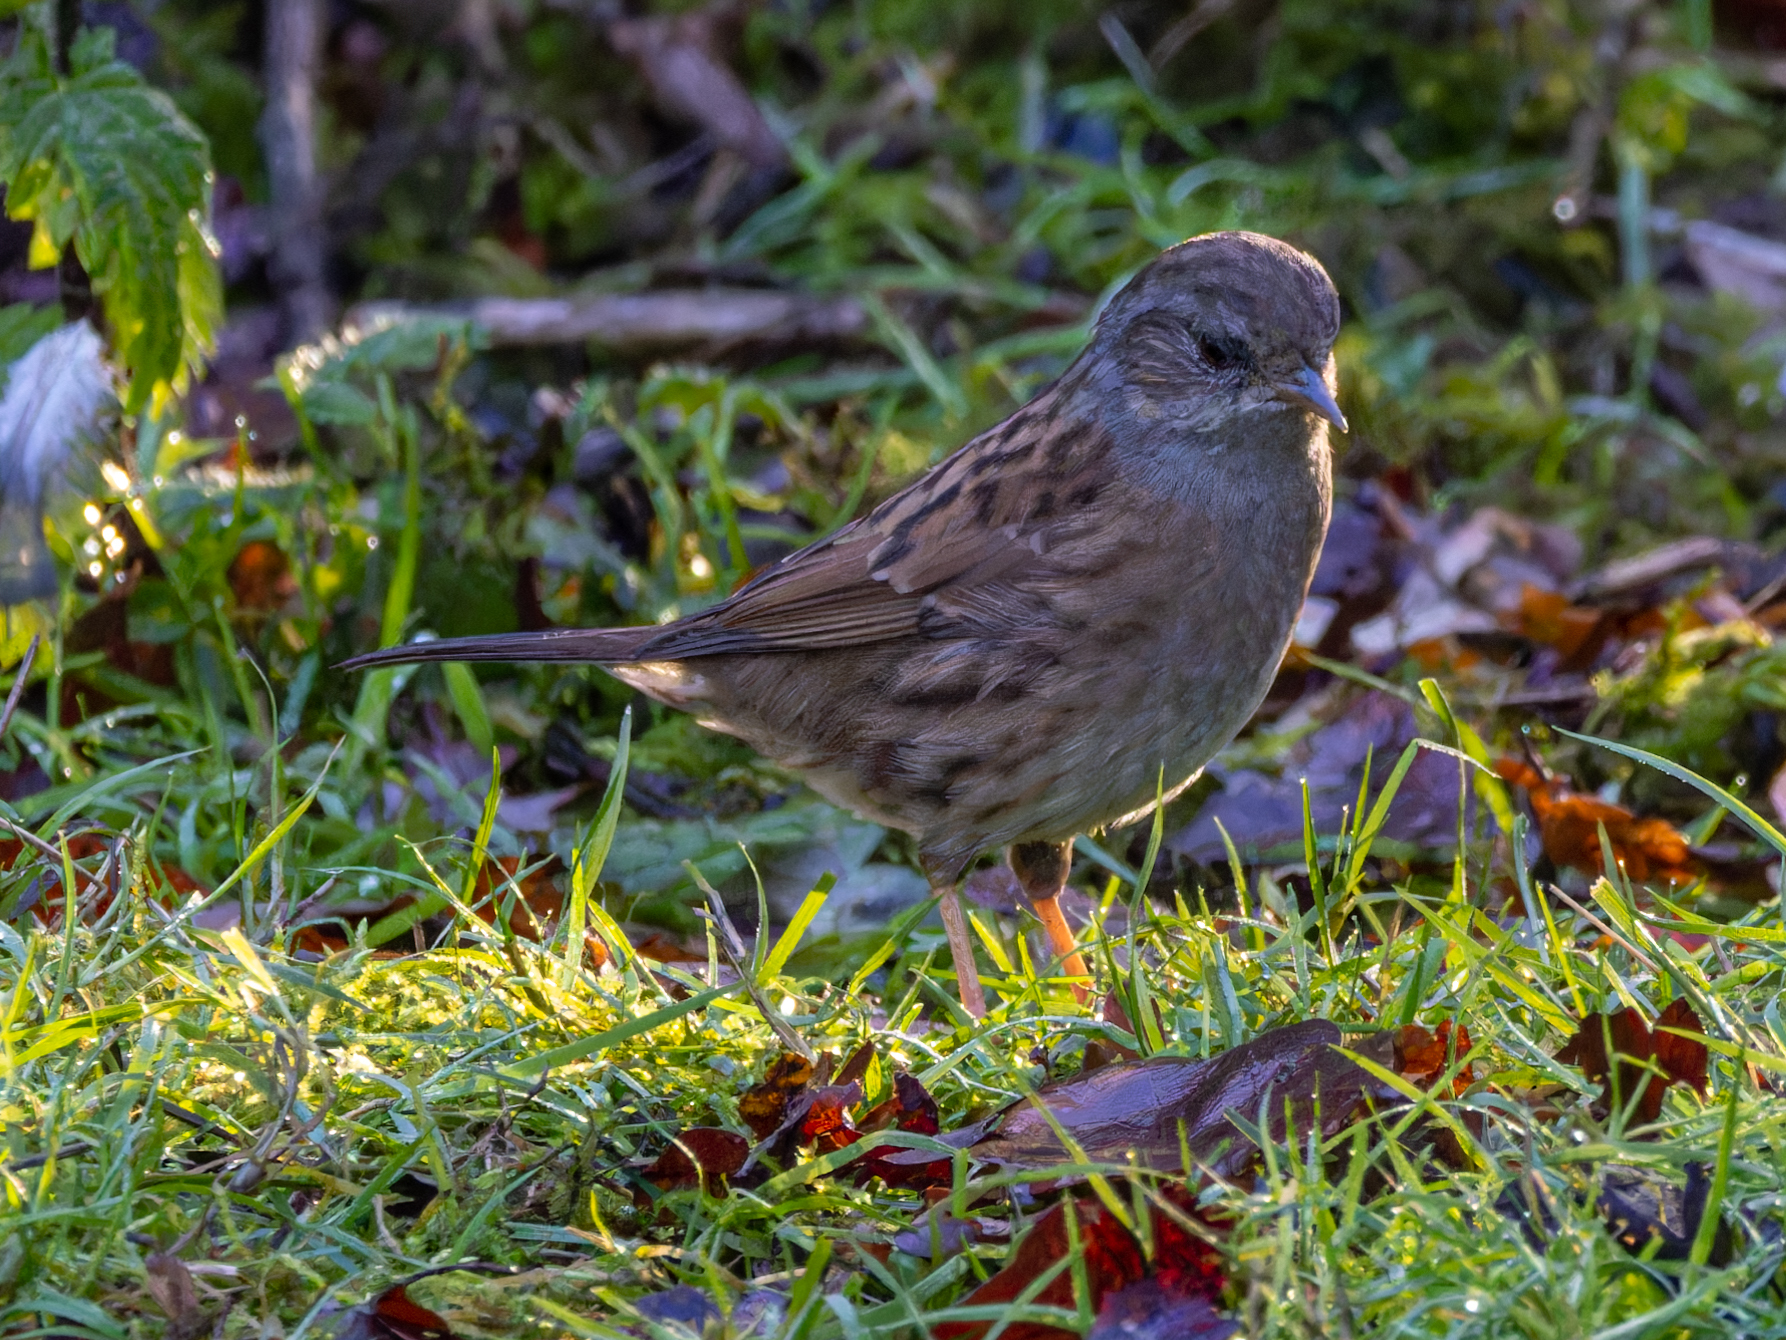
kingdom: Animalia
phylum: Chordata
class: Aves
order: Passeriformes
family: Prunellidae
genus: Prunella
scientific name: Prunella modularis
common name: Dunnock
